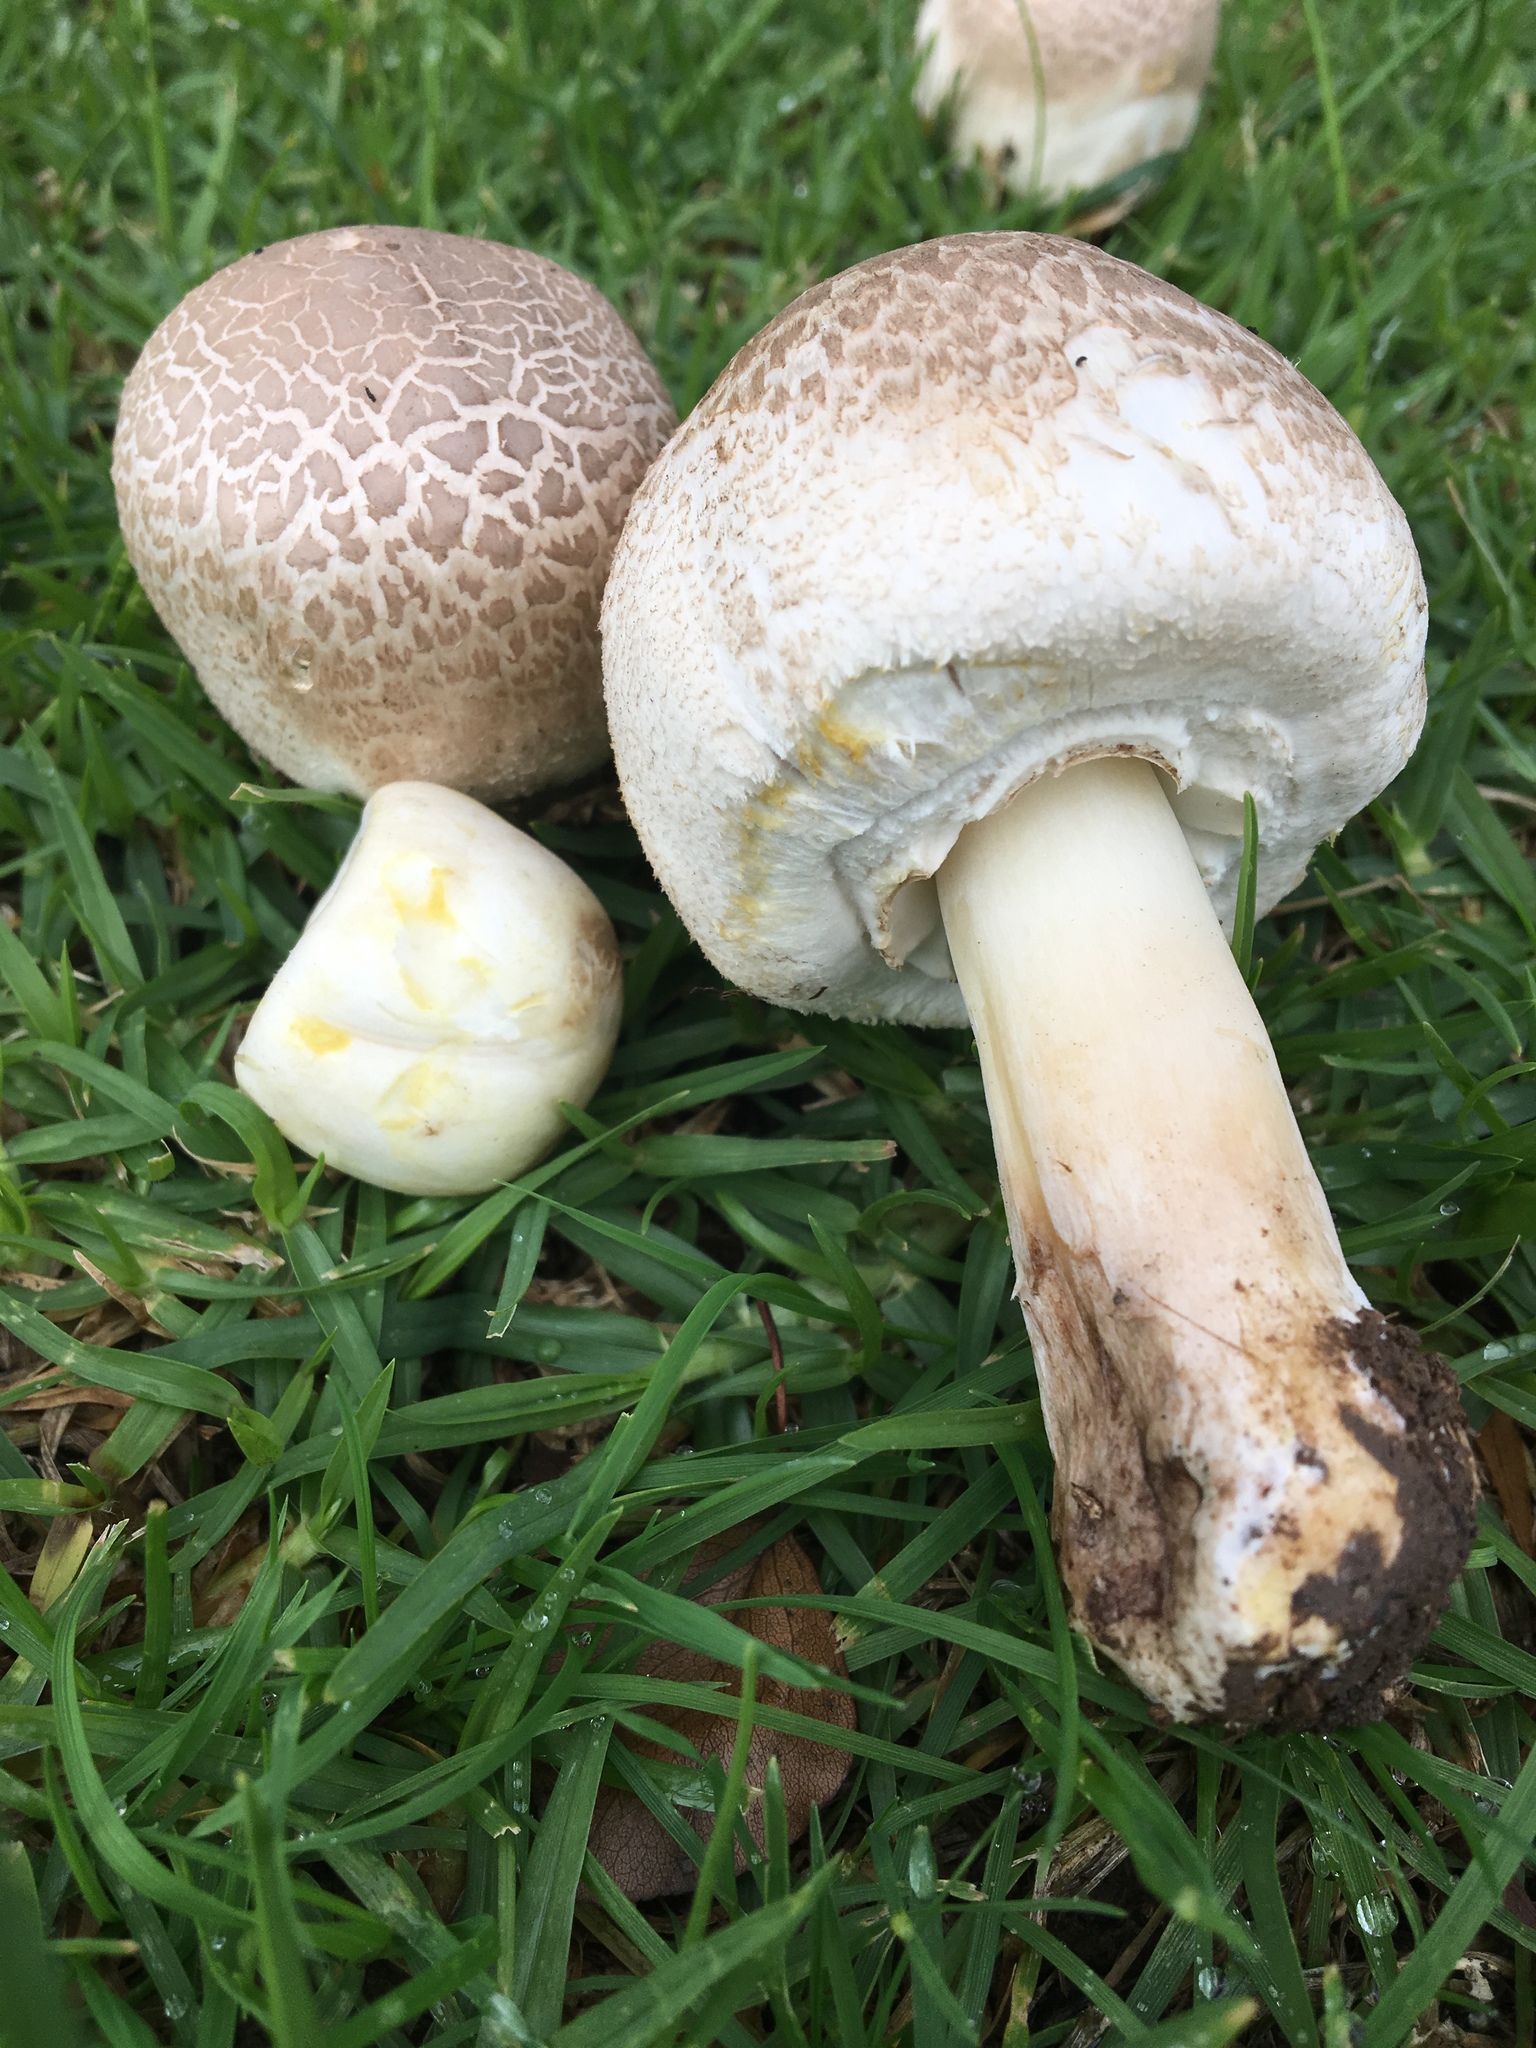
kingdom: Fungi
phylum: Basidiomycota
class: Agaricomycetes
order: Agaricales
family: Agaricaceae
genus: Agaricus
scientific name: Agaricus xanthodermus
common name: Yellow stainer
